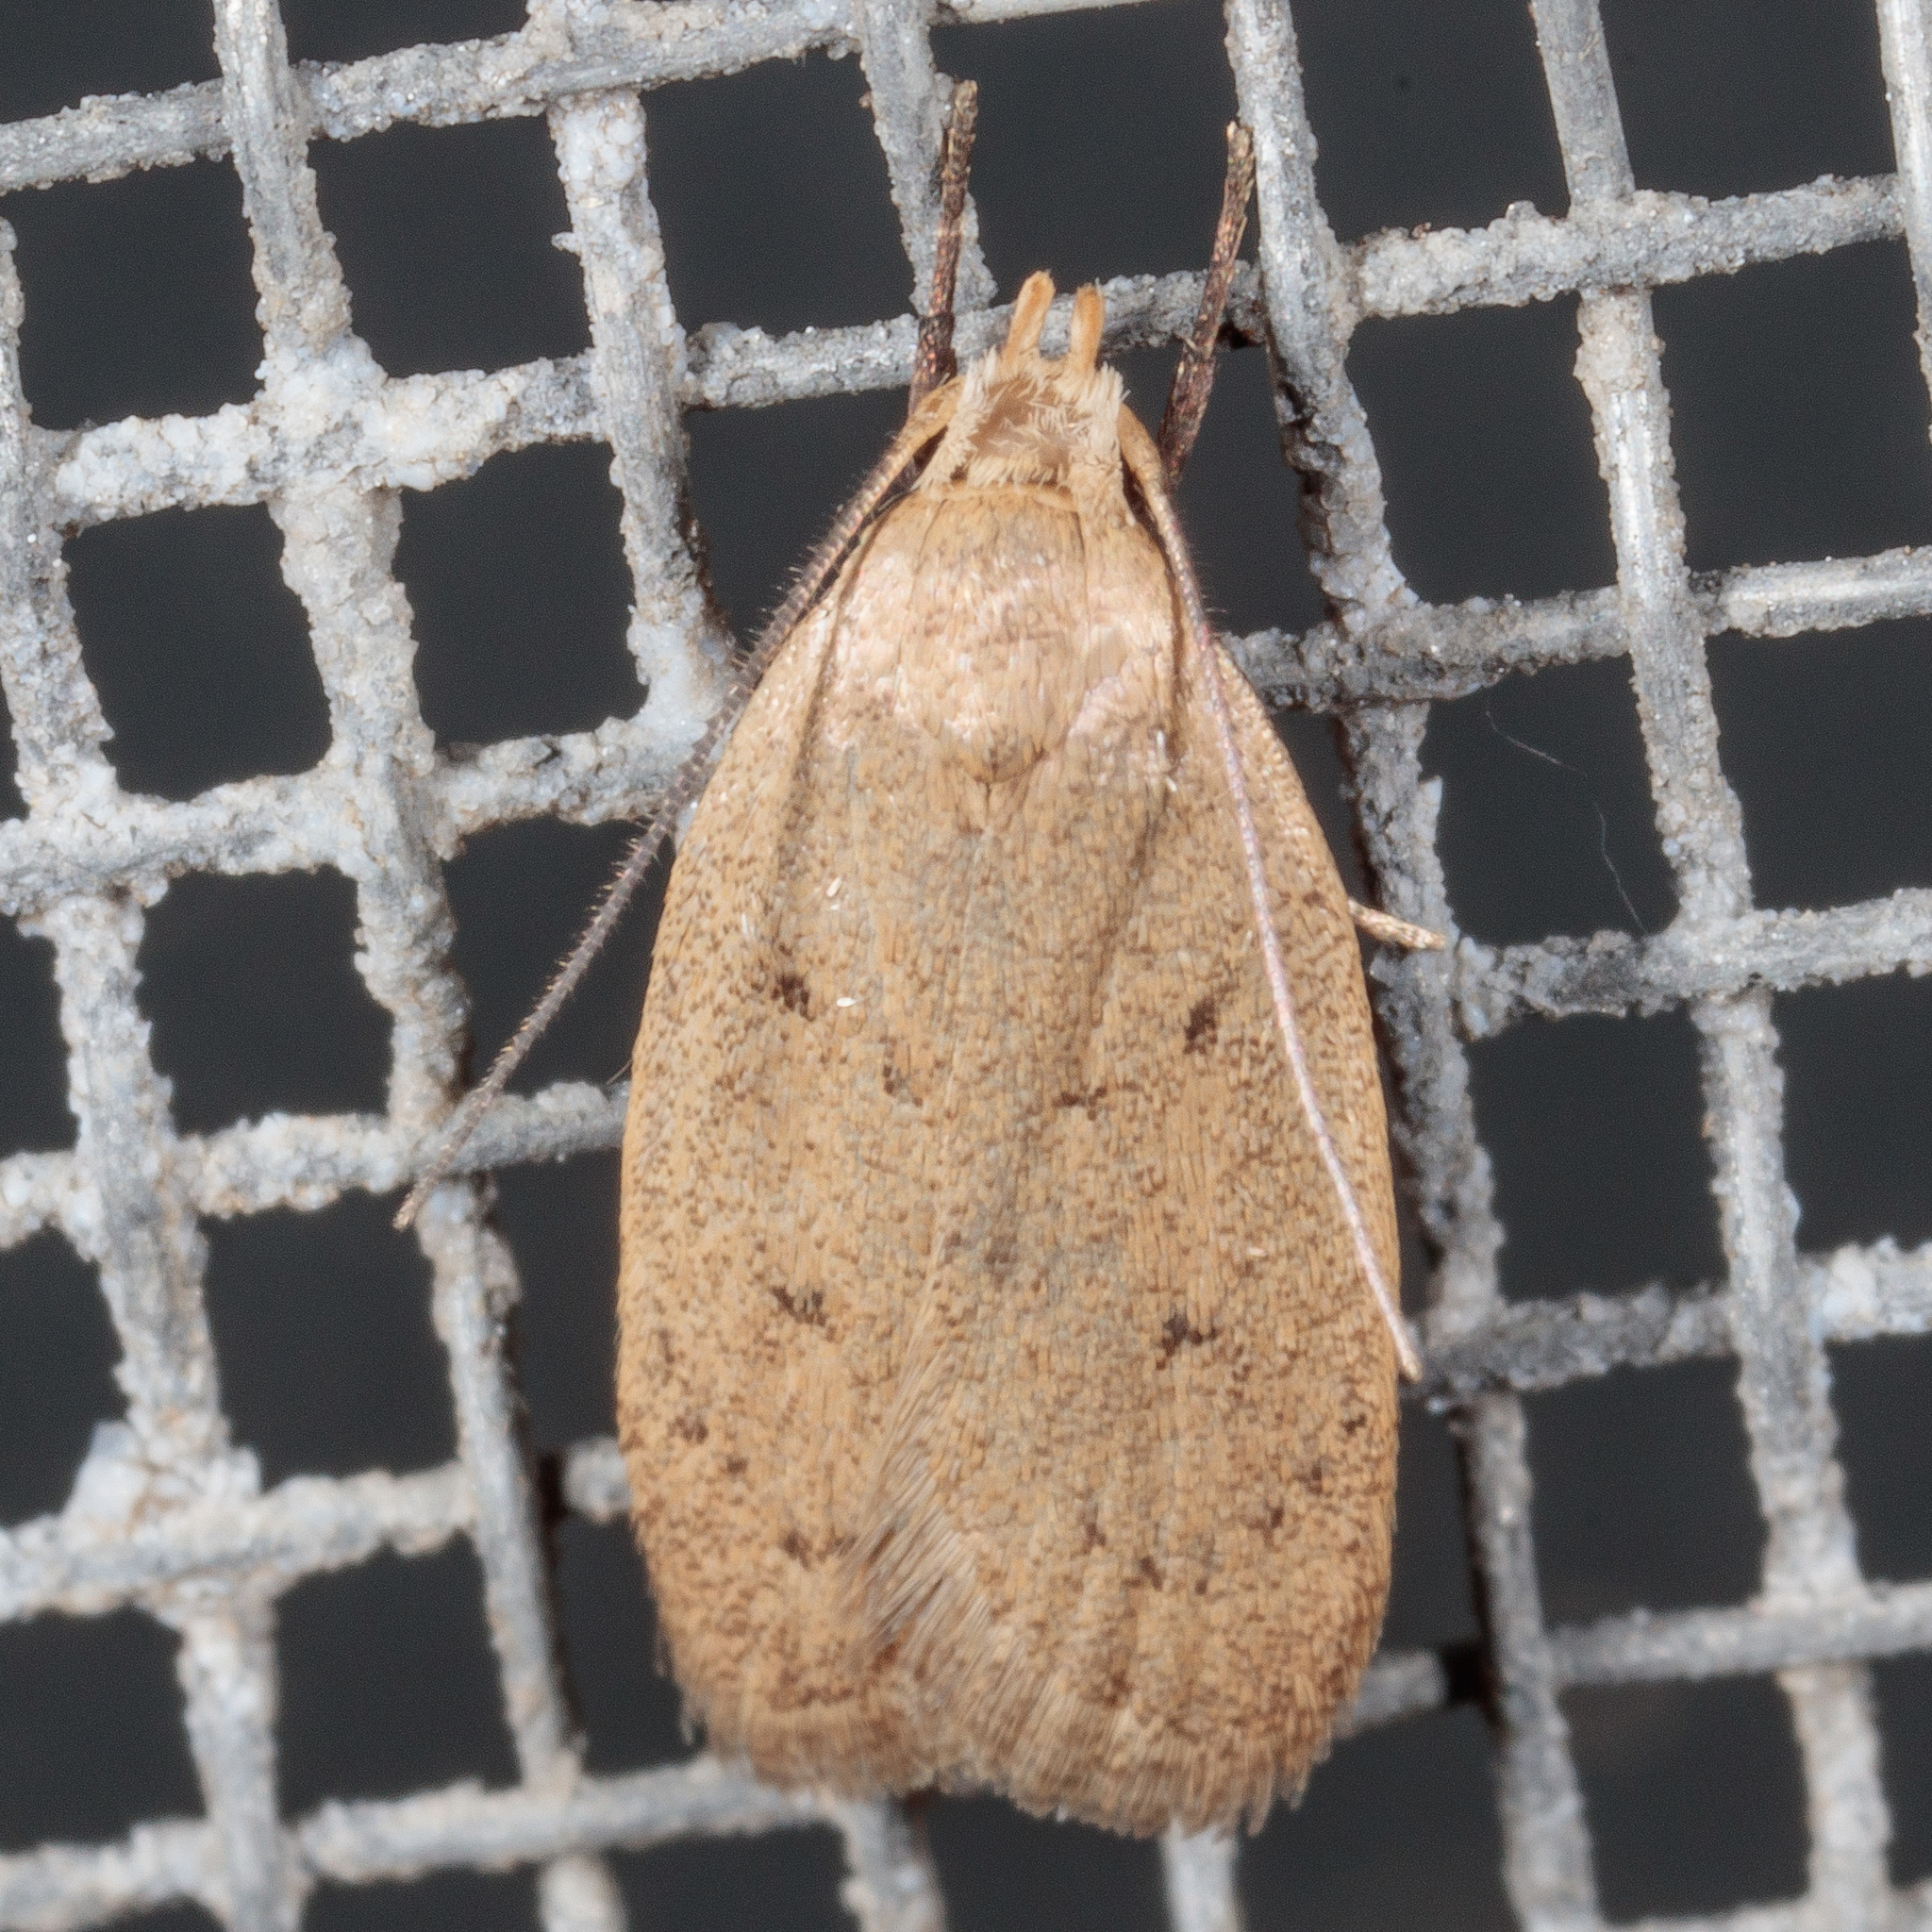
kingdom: Animalia
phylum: Arthropoda
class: Insecta
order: Lepidoptera
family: Oecophoridae
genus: Inga
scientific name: Inga obscuromaculella
